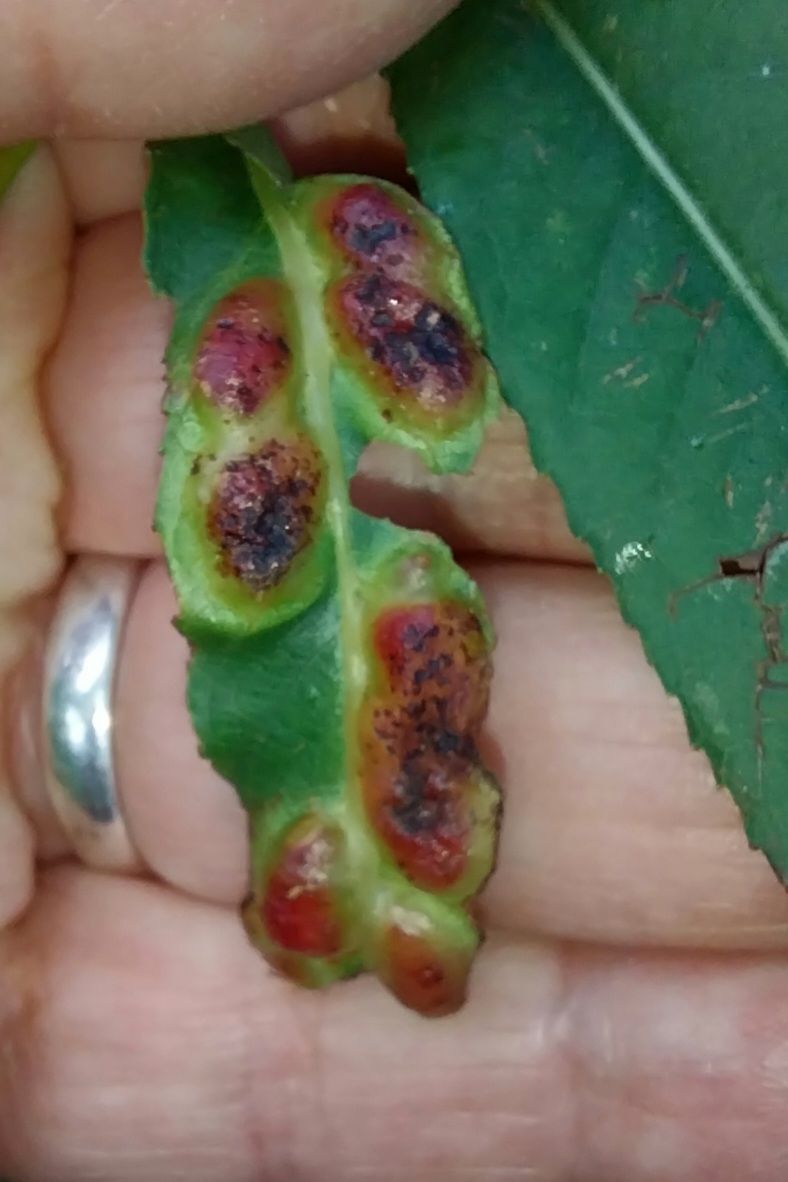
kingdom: Animalia
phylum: Arthropoda
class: Insecta
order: Hymenoptera
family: Tenthredinidae
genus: Pontania
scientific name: Pontania proxima
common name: Common sawfly
